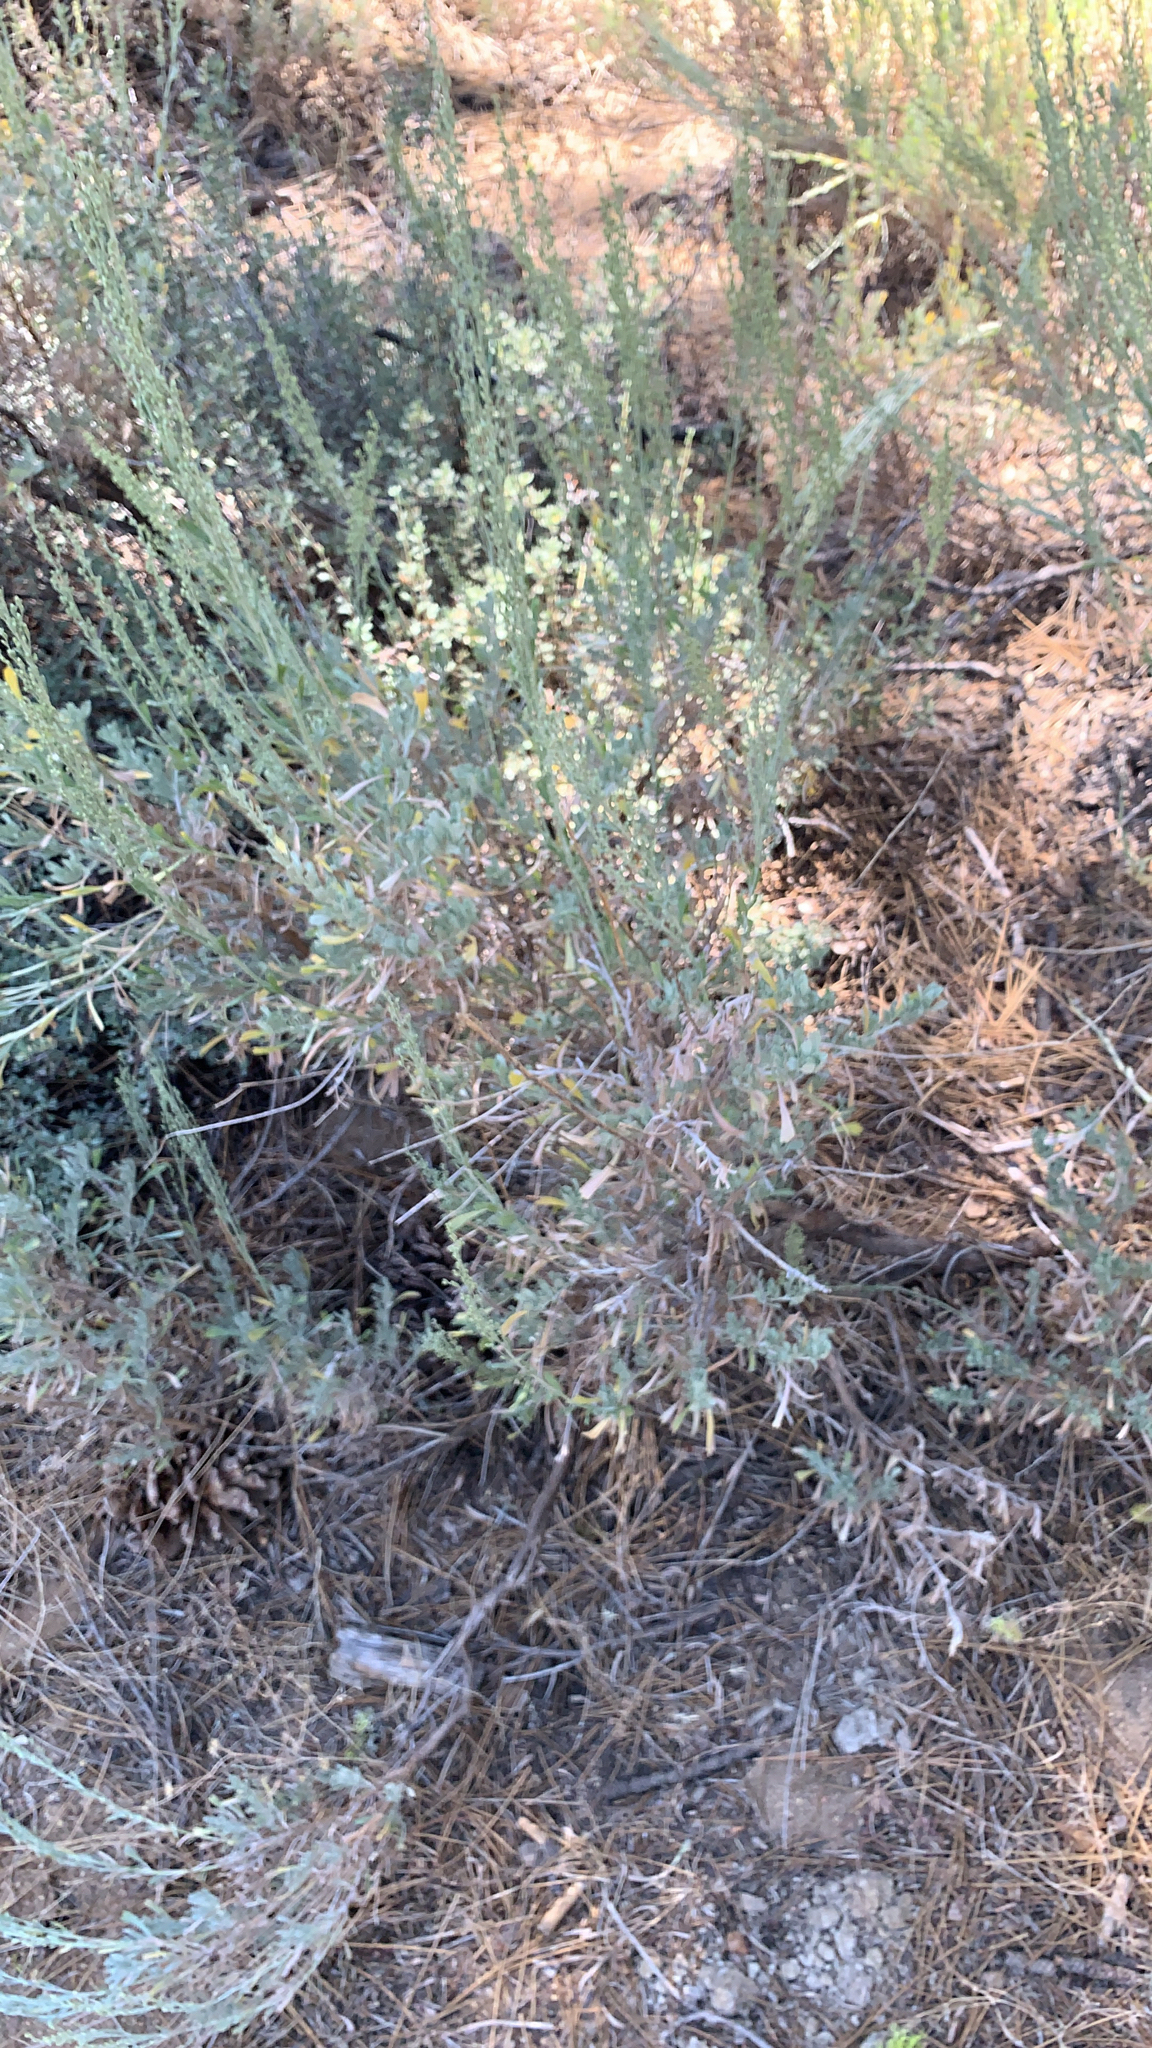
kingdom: Plantae
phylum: Tracheophyta
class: Magnoliopsida
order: Asterales
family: Asteraceae
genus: Artemisia
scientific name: Artemisia tridentata
